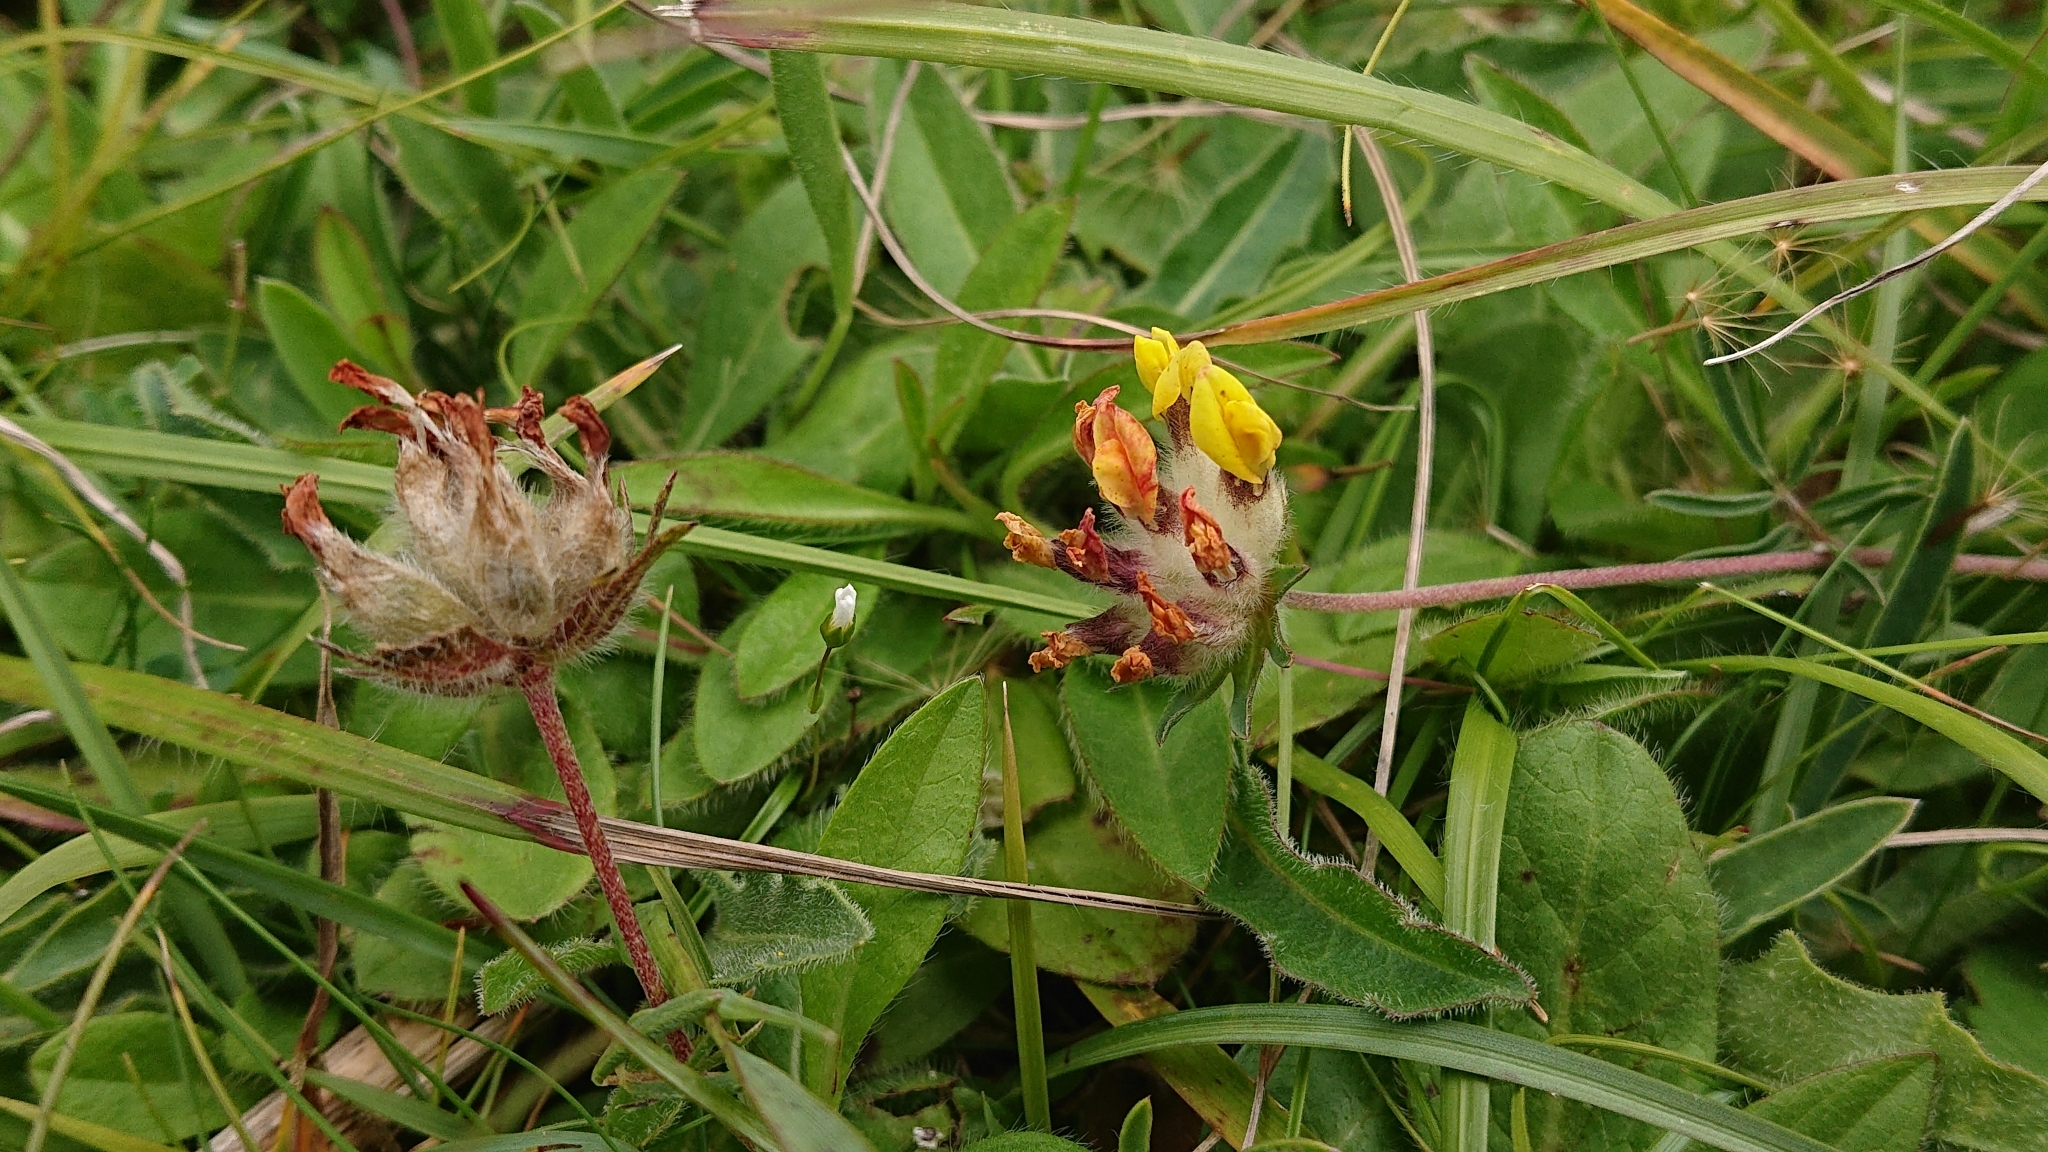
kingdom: Plantae
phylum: Tracheophyta
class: Magnoliopsida
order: Fabales
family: Fabaceae
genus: Anthyllis
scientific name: Anthyllis vulneraria
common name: Kidney vetch
